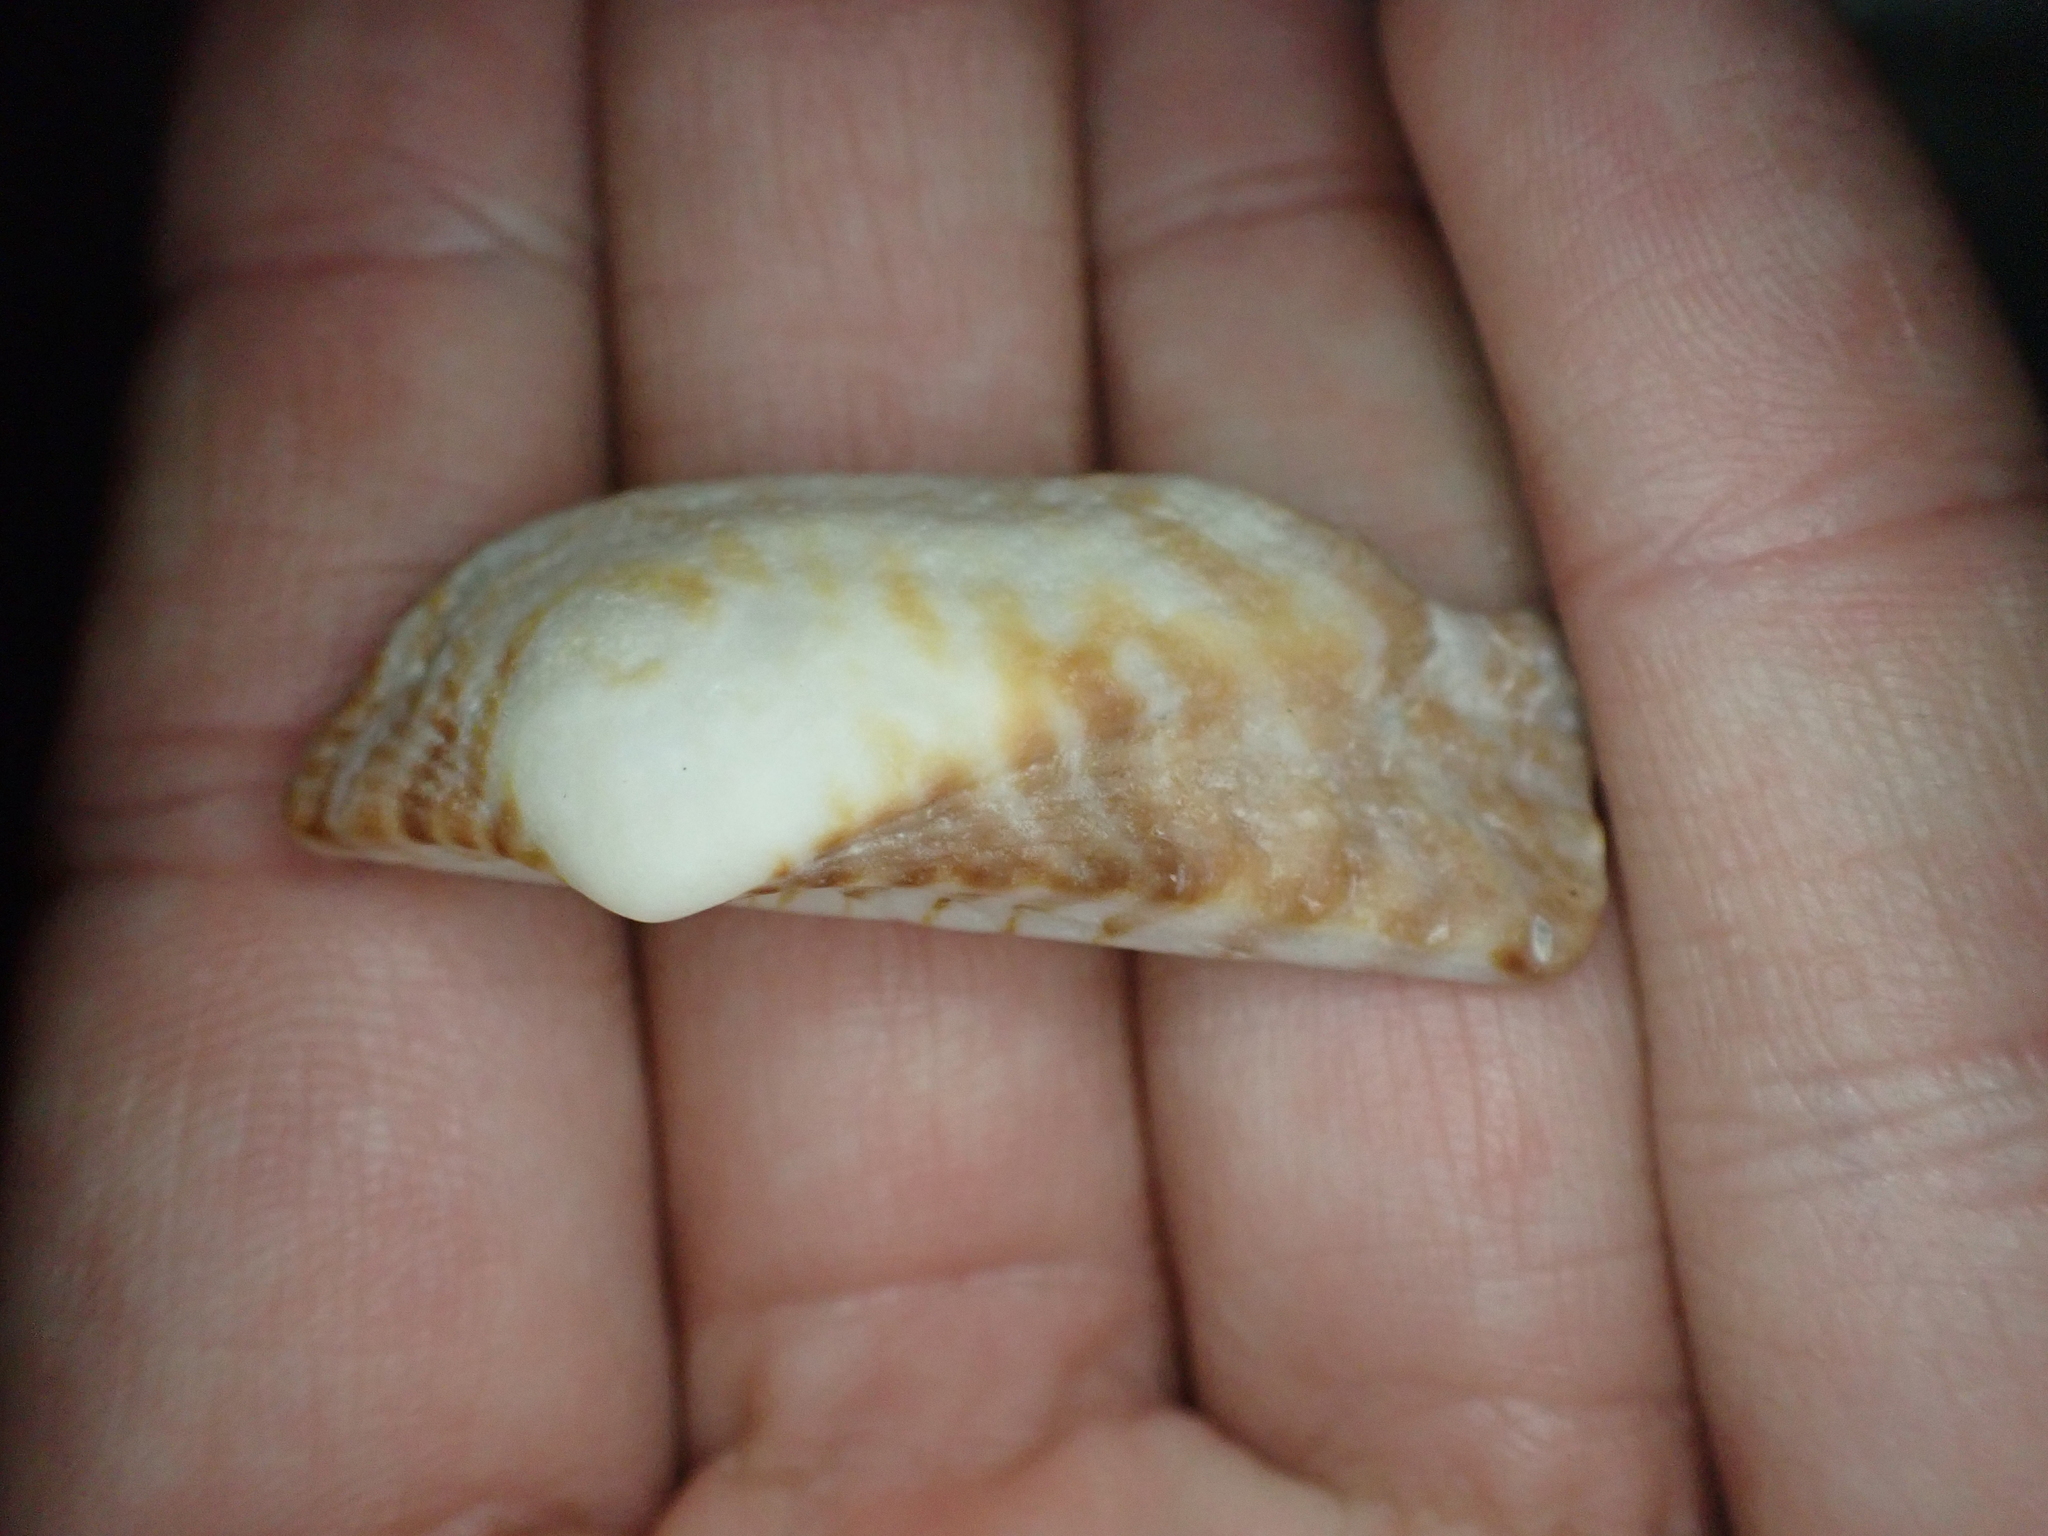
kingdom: Animalia
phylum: Mollusca
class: Bivalvia
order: Arcida
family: Arcidae
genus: Arca
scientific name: Arca zebra
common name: Atlantic turkey wing
